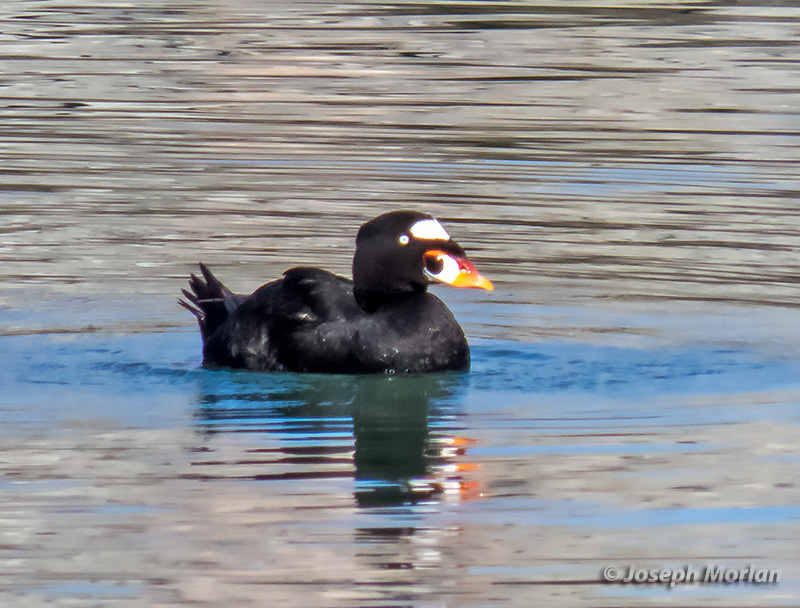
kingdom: Animalia
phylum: Chordata
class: Aves
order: Anseriformes
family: Anatidae
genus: Melanitta
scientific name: Melanitta perspicillata
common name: Surf scoter
